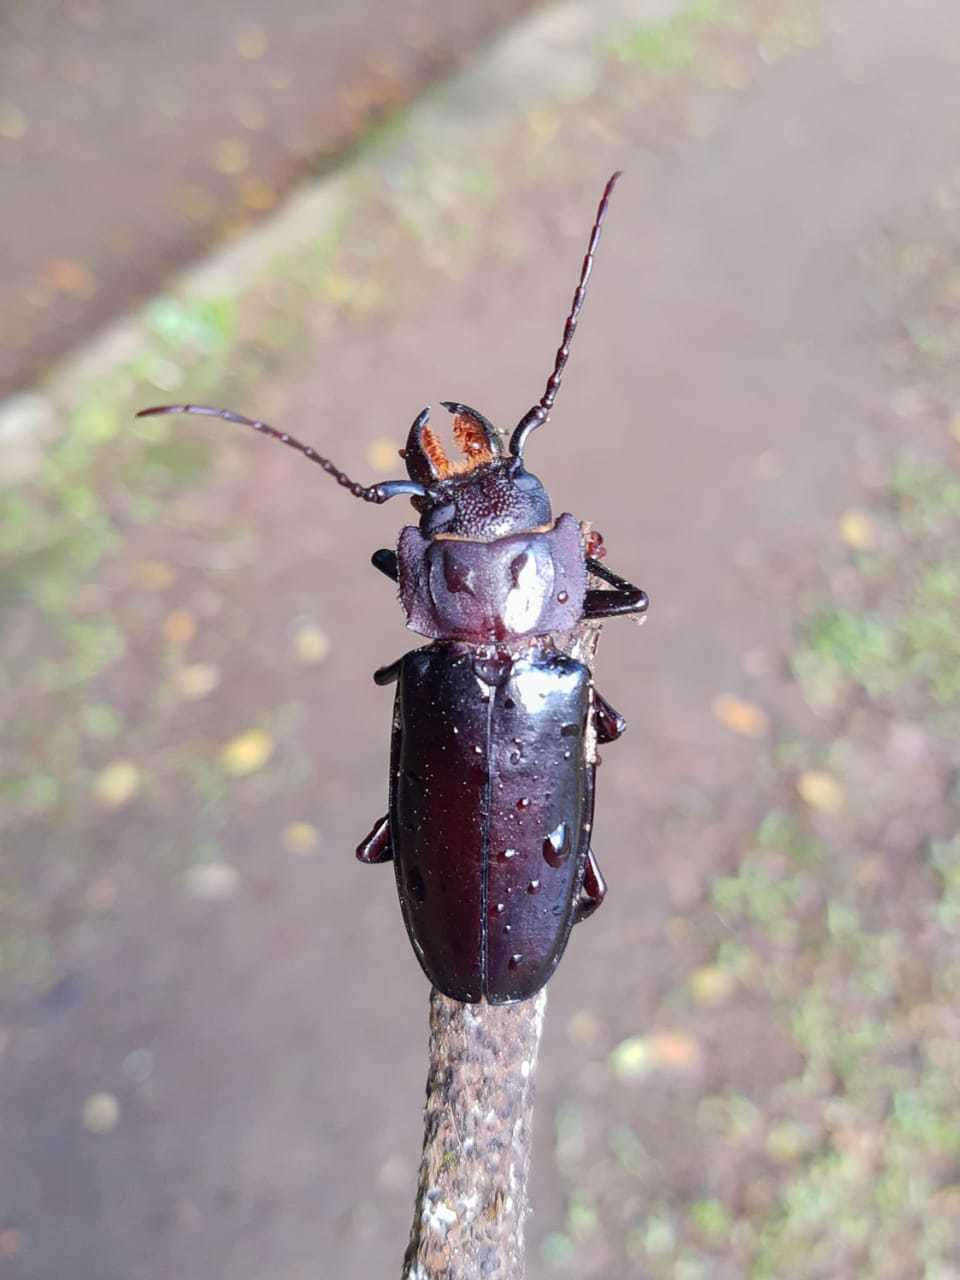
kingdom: Animalia
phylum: Arthropoda
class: Insecta
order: Coleoptera
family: Cerambycidae
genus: Mallodon
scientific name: Mallodon dasystomum
